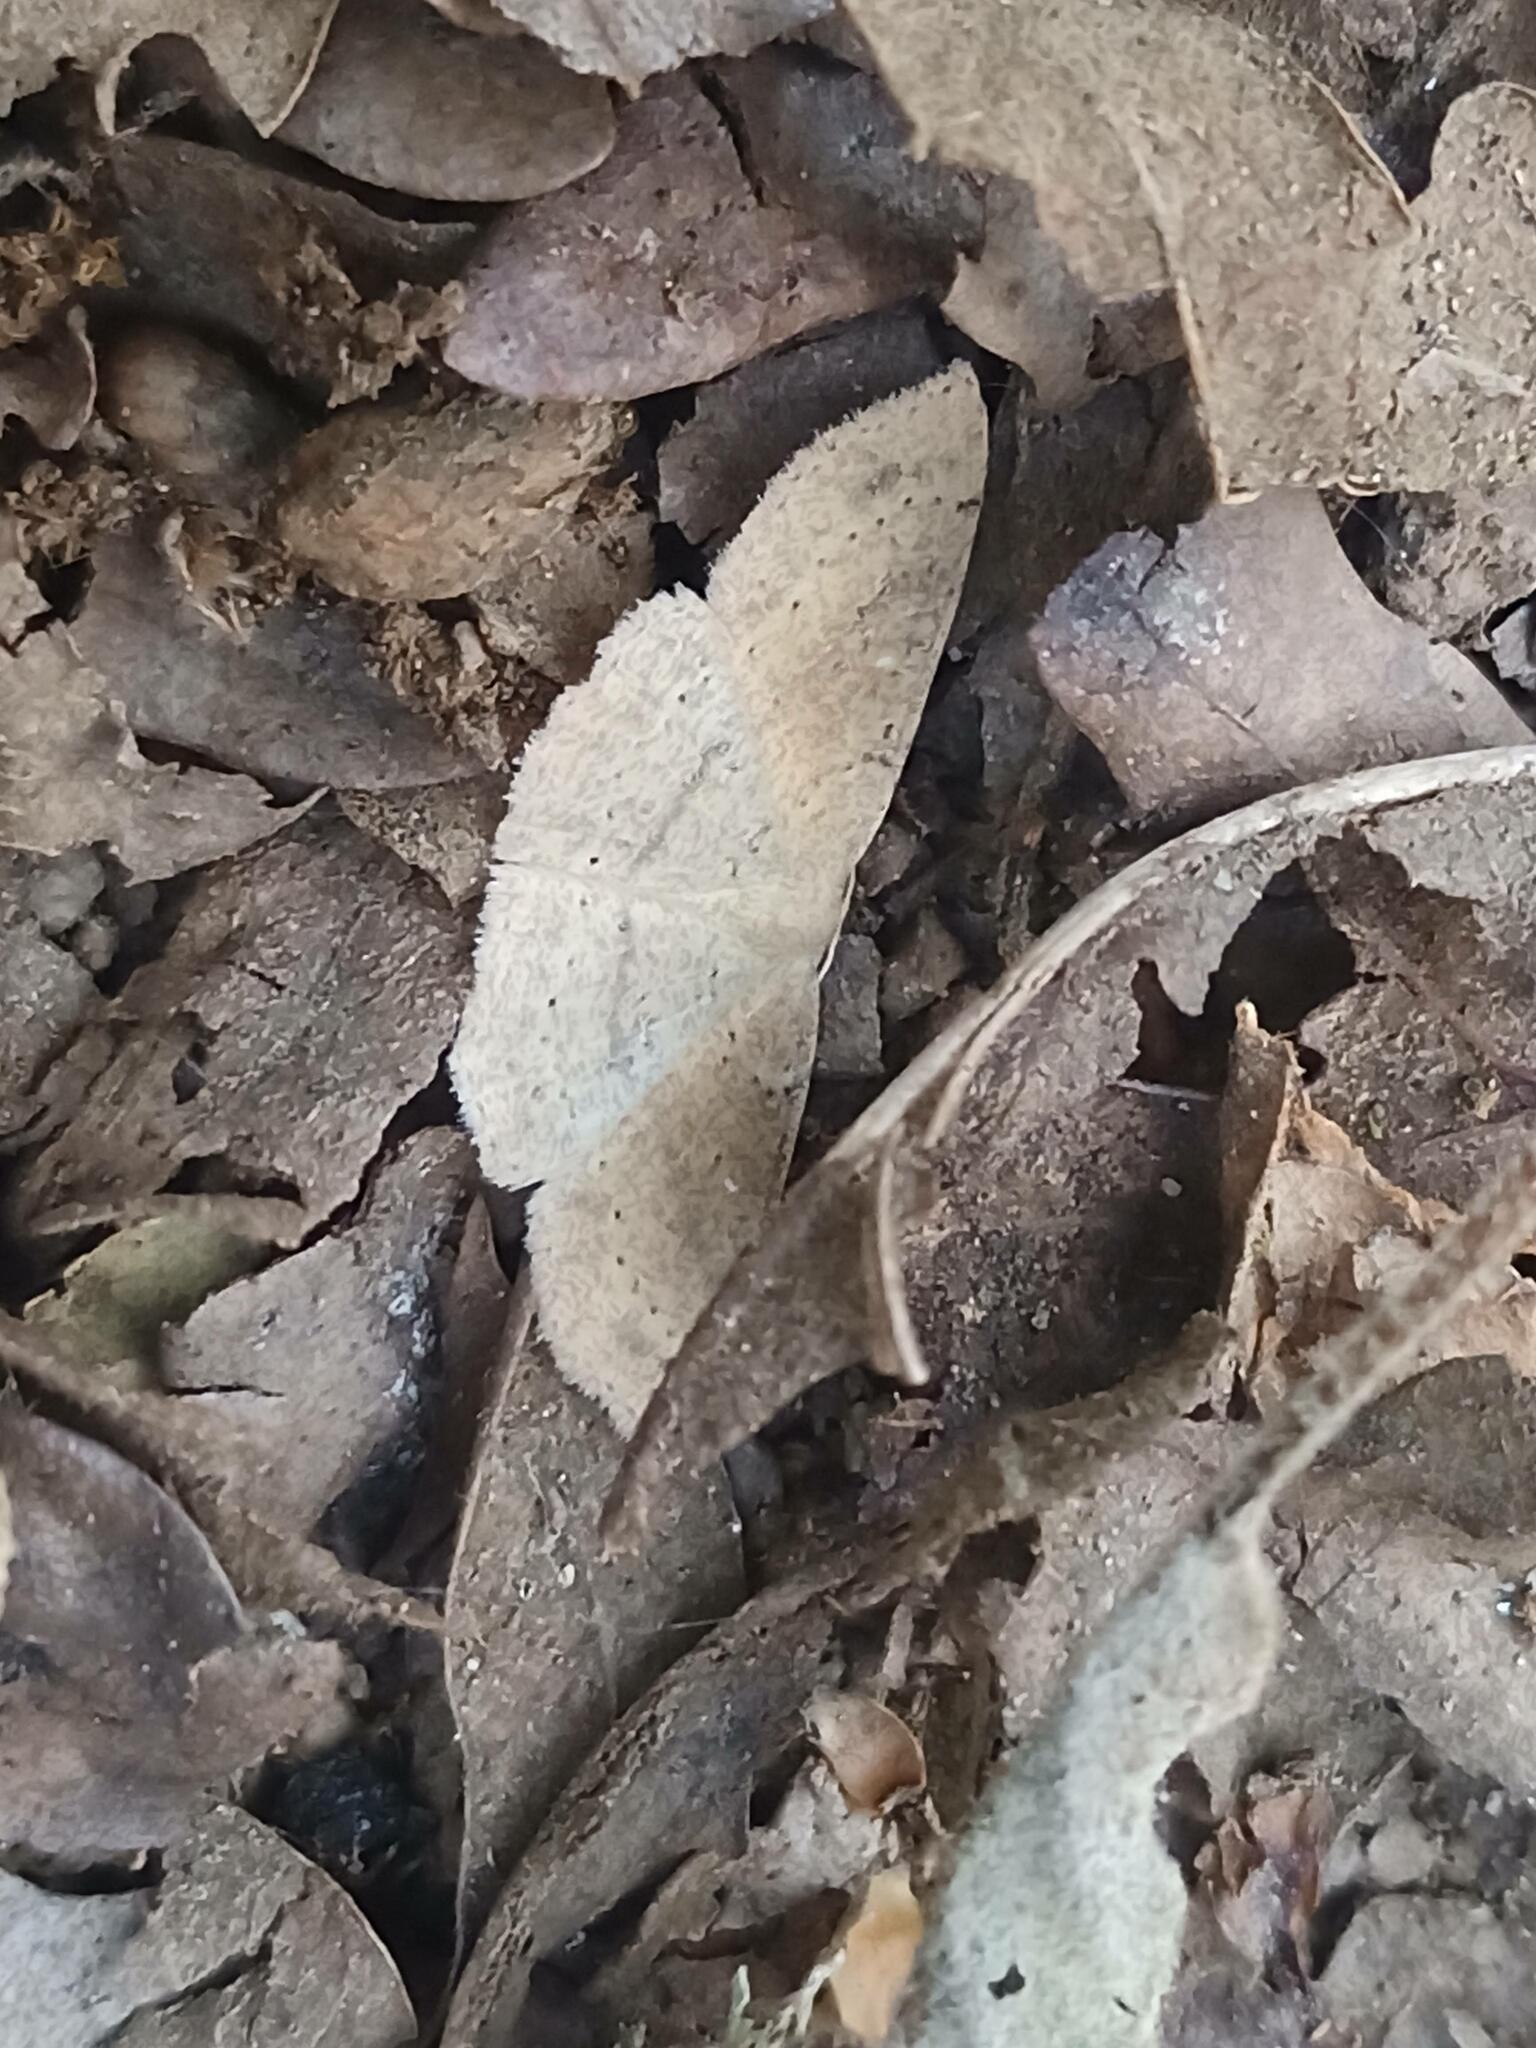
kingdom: Animalia
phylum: Arthropoda
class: Insecta
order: Lepidoptera
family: Geometridae
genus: Cyclophora
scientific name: Cyclophora ruficiliaria
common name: Jersey mocha
